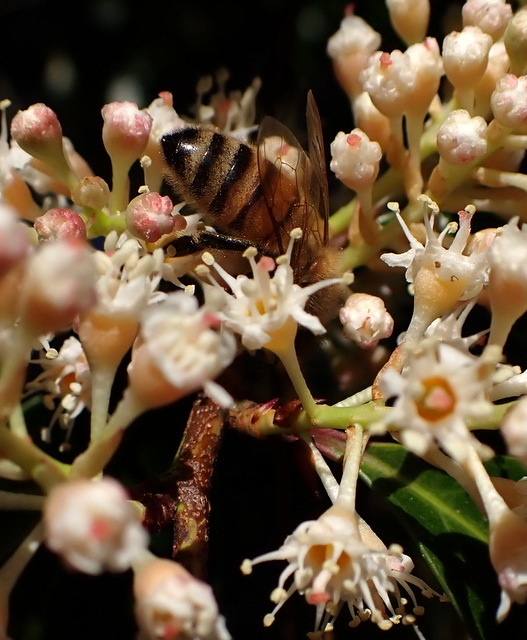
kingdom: Animalia
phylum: Arthropoda
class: Insecta
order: Hymenoptera
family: Apidae
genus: Apis
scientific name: Apis mellifera
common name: Honey bee
